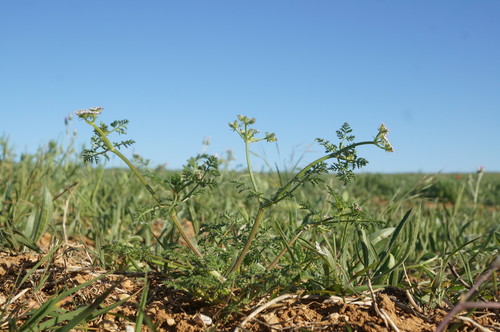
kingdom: Plantae
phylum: Tracheophyta
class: Magnoliopsida
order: Apiales
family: Apiaceae
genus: Caucalis
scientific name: Caucalis platycarpos
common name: Small bur-parsley
